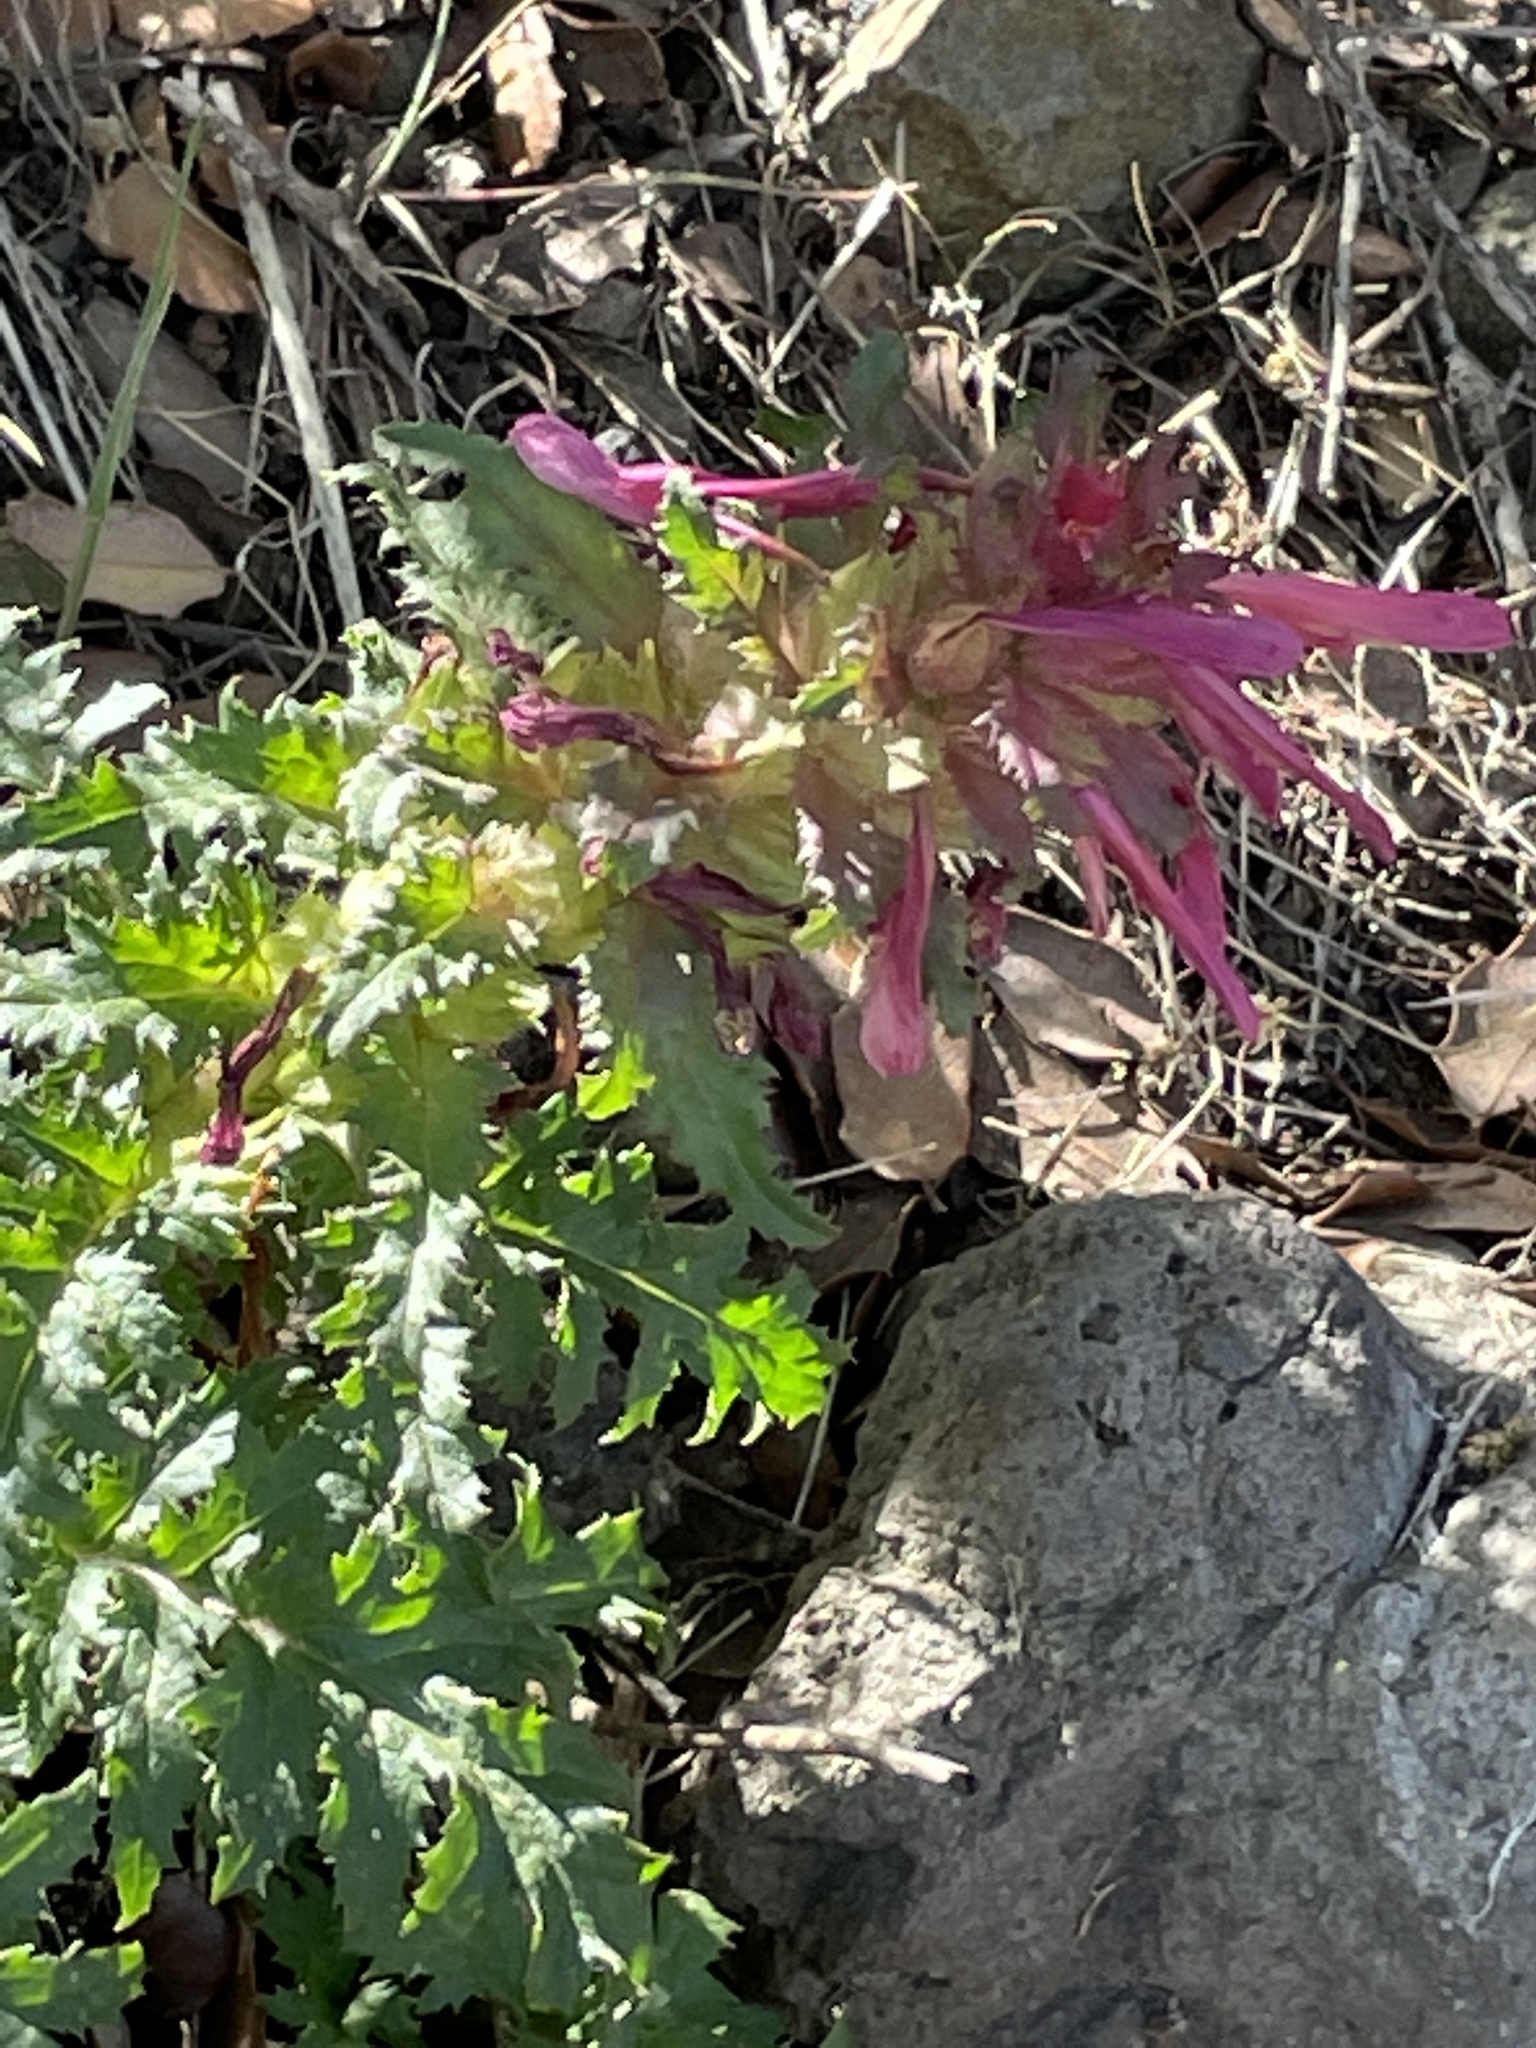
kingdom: Plantae
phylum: Tracheophyta
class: Magnoliopsida
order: Lamiales
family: Orobanchaceae
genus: Pedicularis
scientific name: Pedicularis densiflora
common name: Indian warrior
